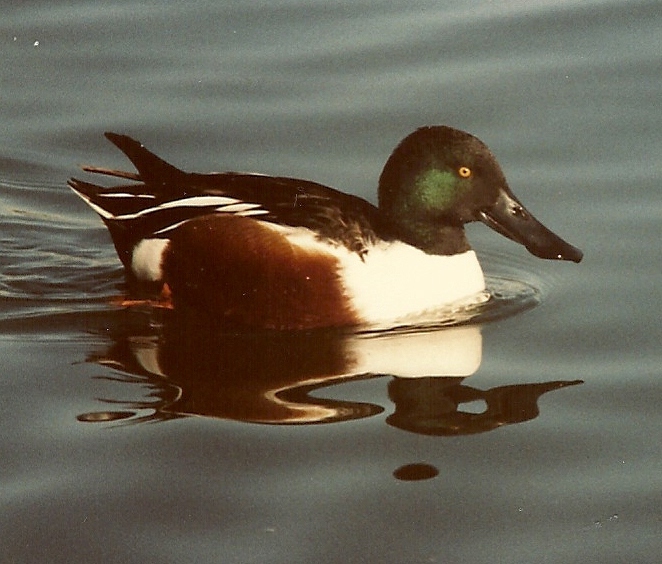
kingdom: Animalia
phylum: Chordata
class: Aves
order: Anseriformes
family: Anatidae
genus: Spatula
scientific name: Spatula clypeata
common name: Northern shoveler
